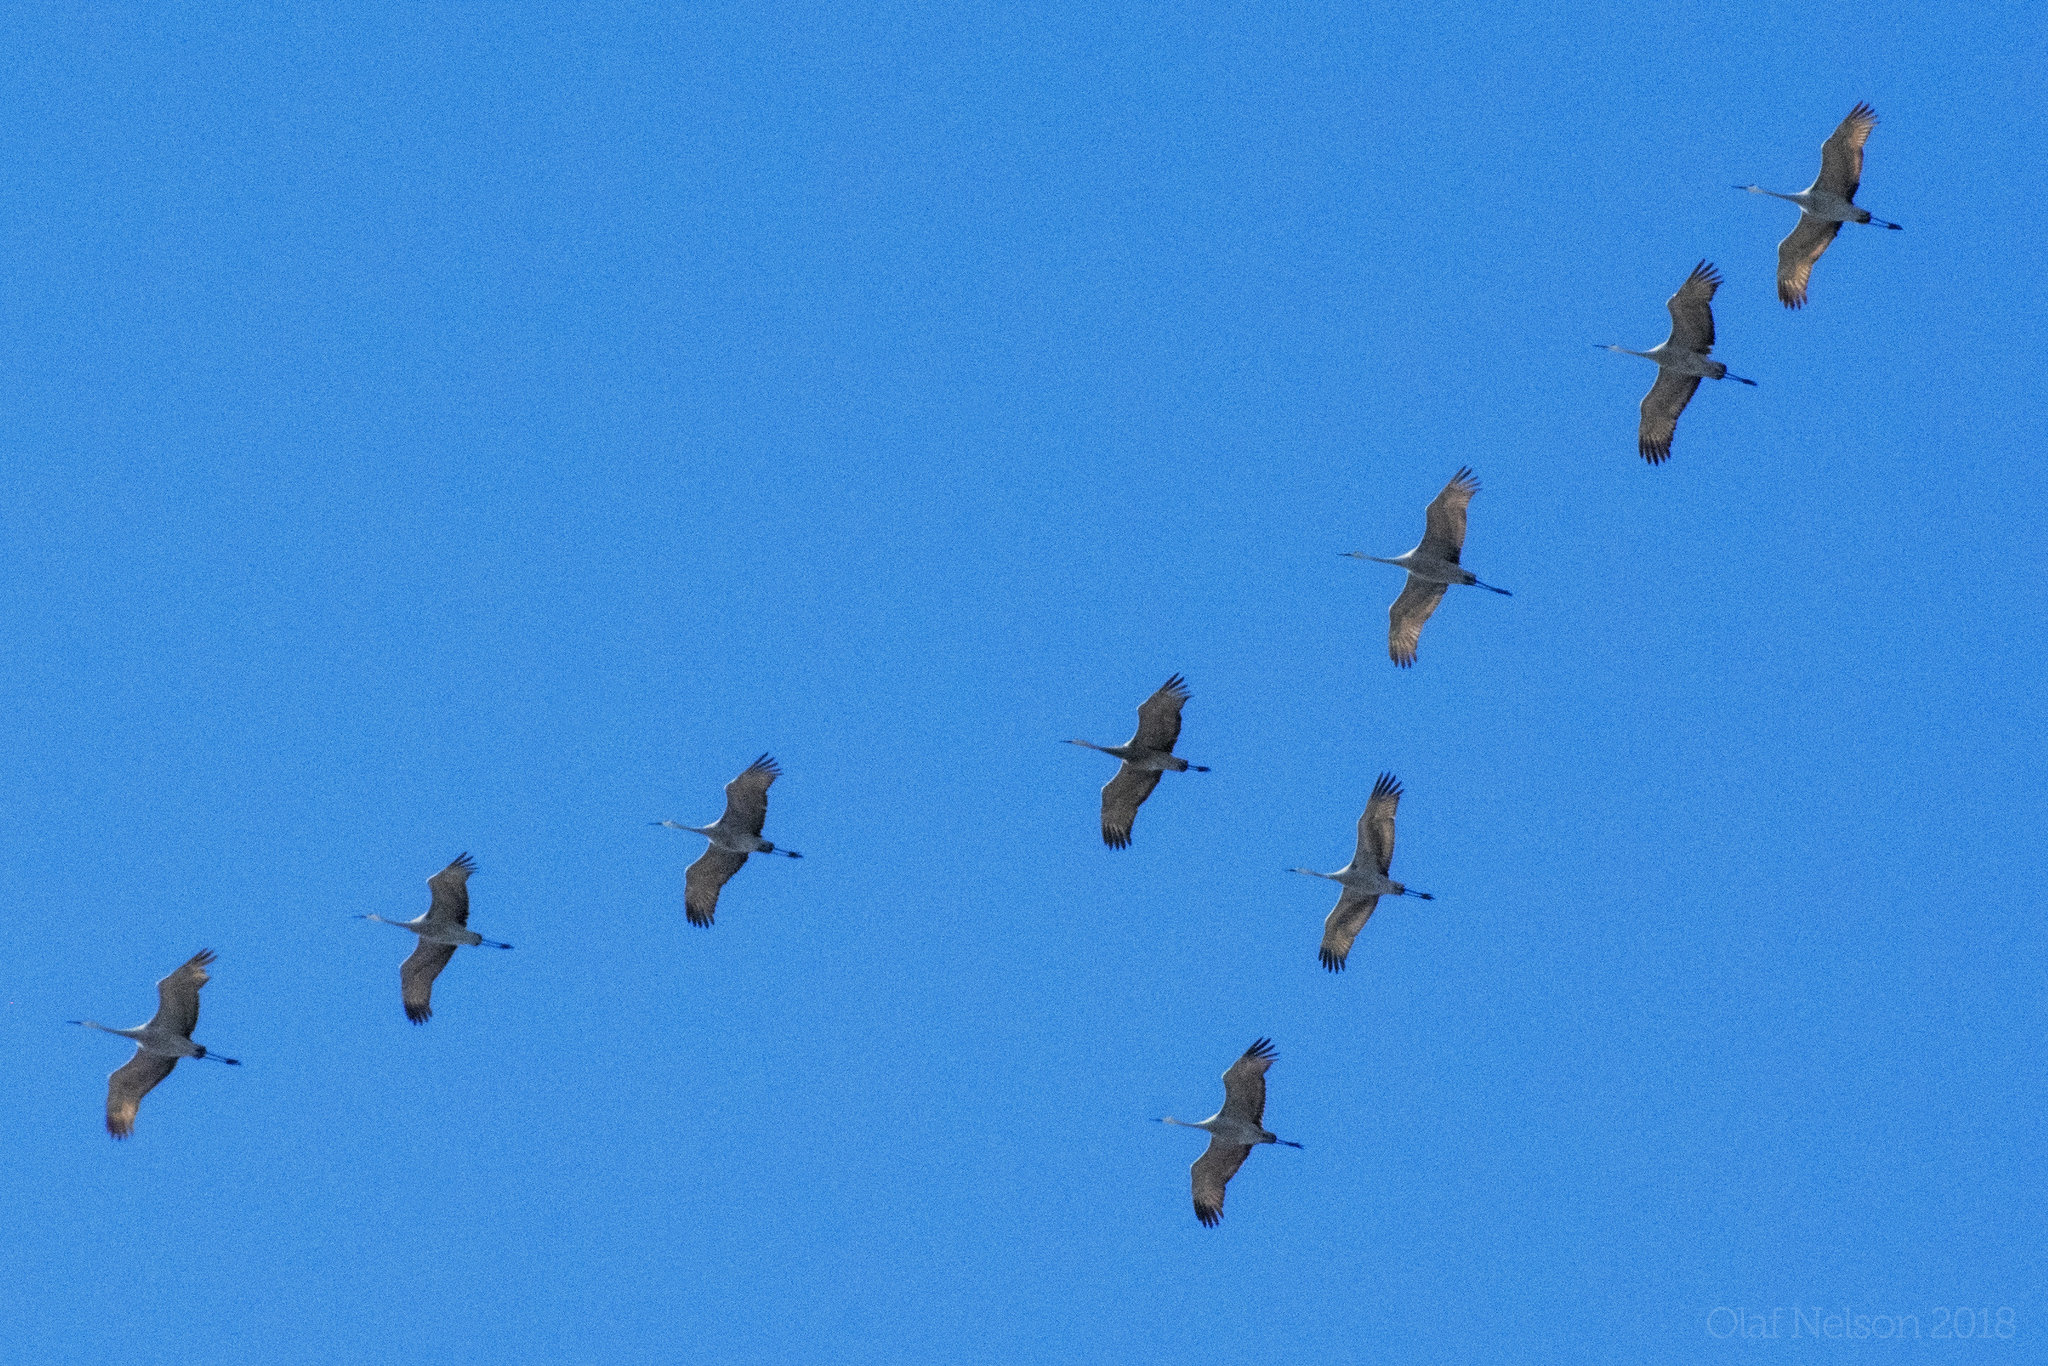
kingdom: Animalia
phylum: Chordata
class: Aves
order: Gruiformes
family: Gruidae
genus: Grus
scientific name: Grus canadensis
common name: Sandhill crane
